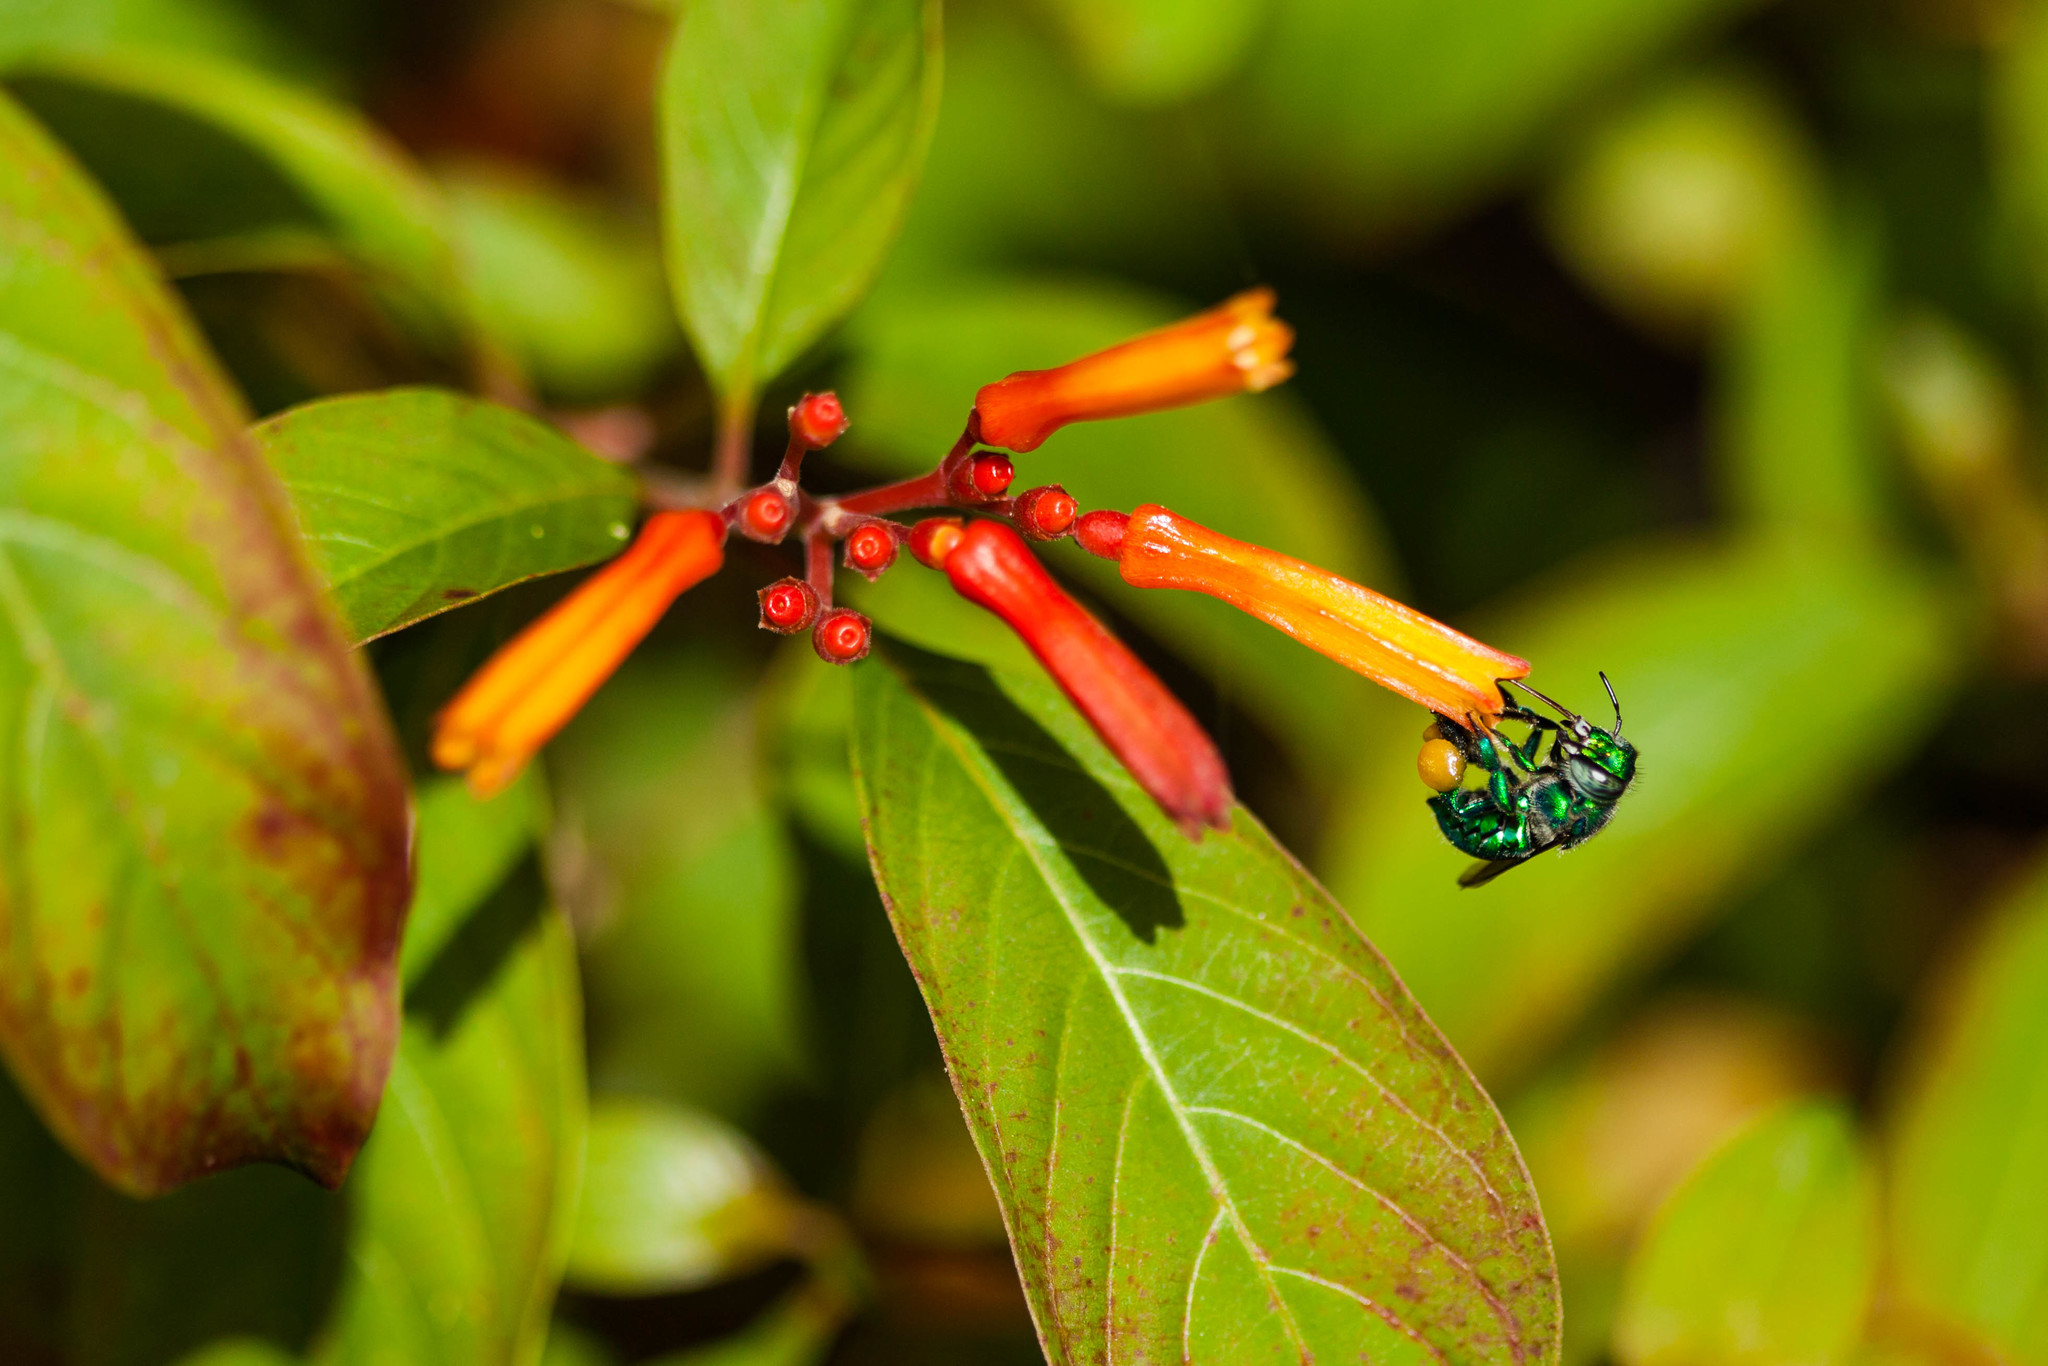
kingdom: Animalia
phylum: Arthropoda
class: Insecta
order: Hymenoptera
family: Apidae
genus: Euglossa
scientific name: Euglossa dilemma
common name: Green orchid bee
